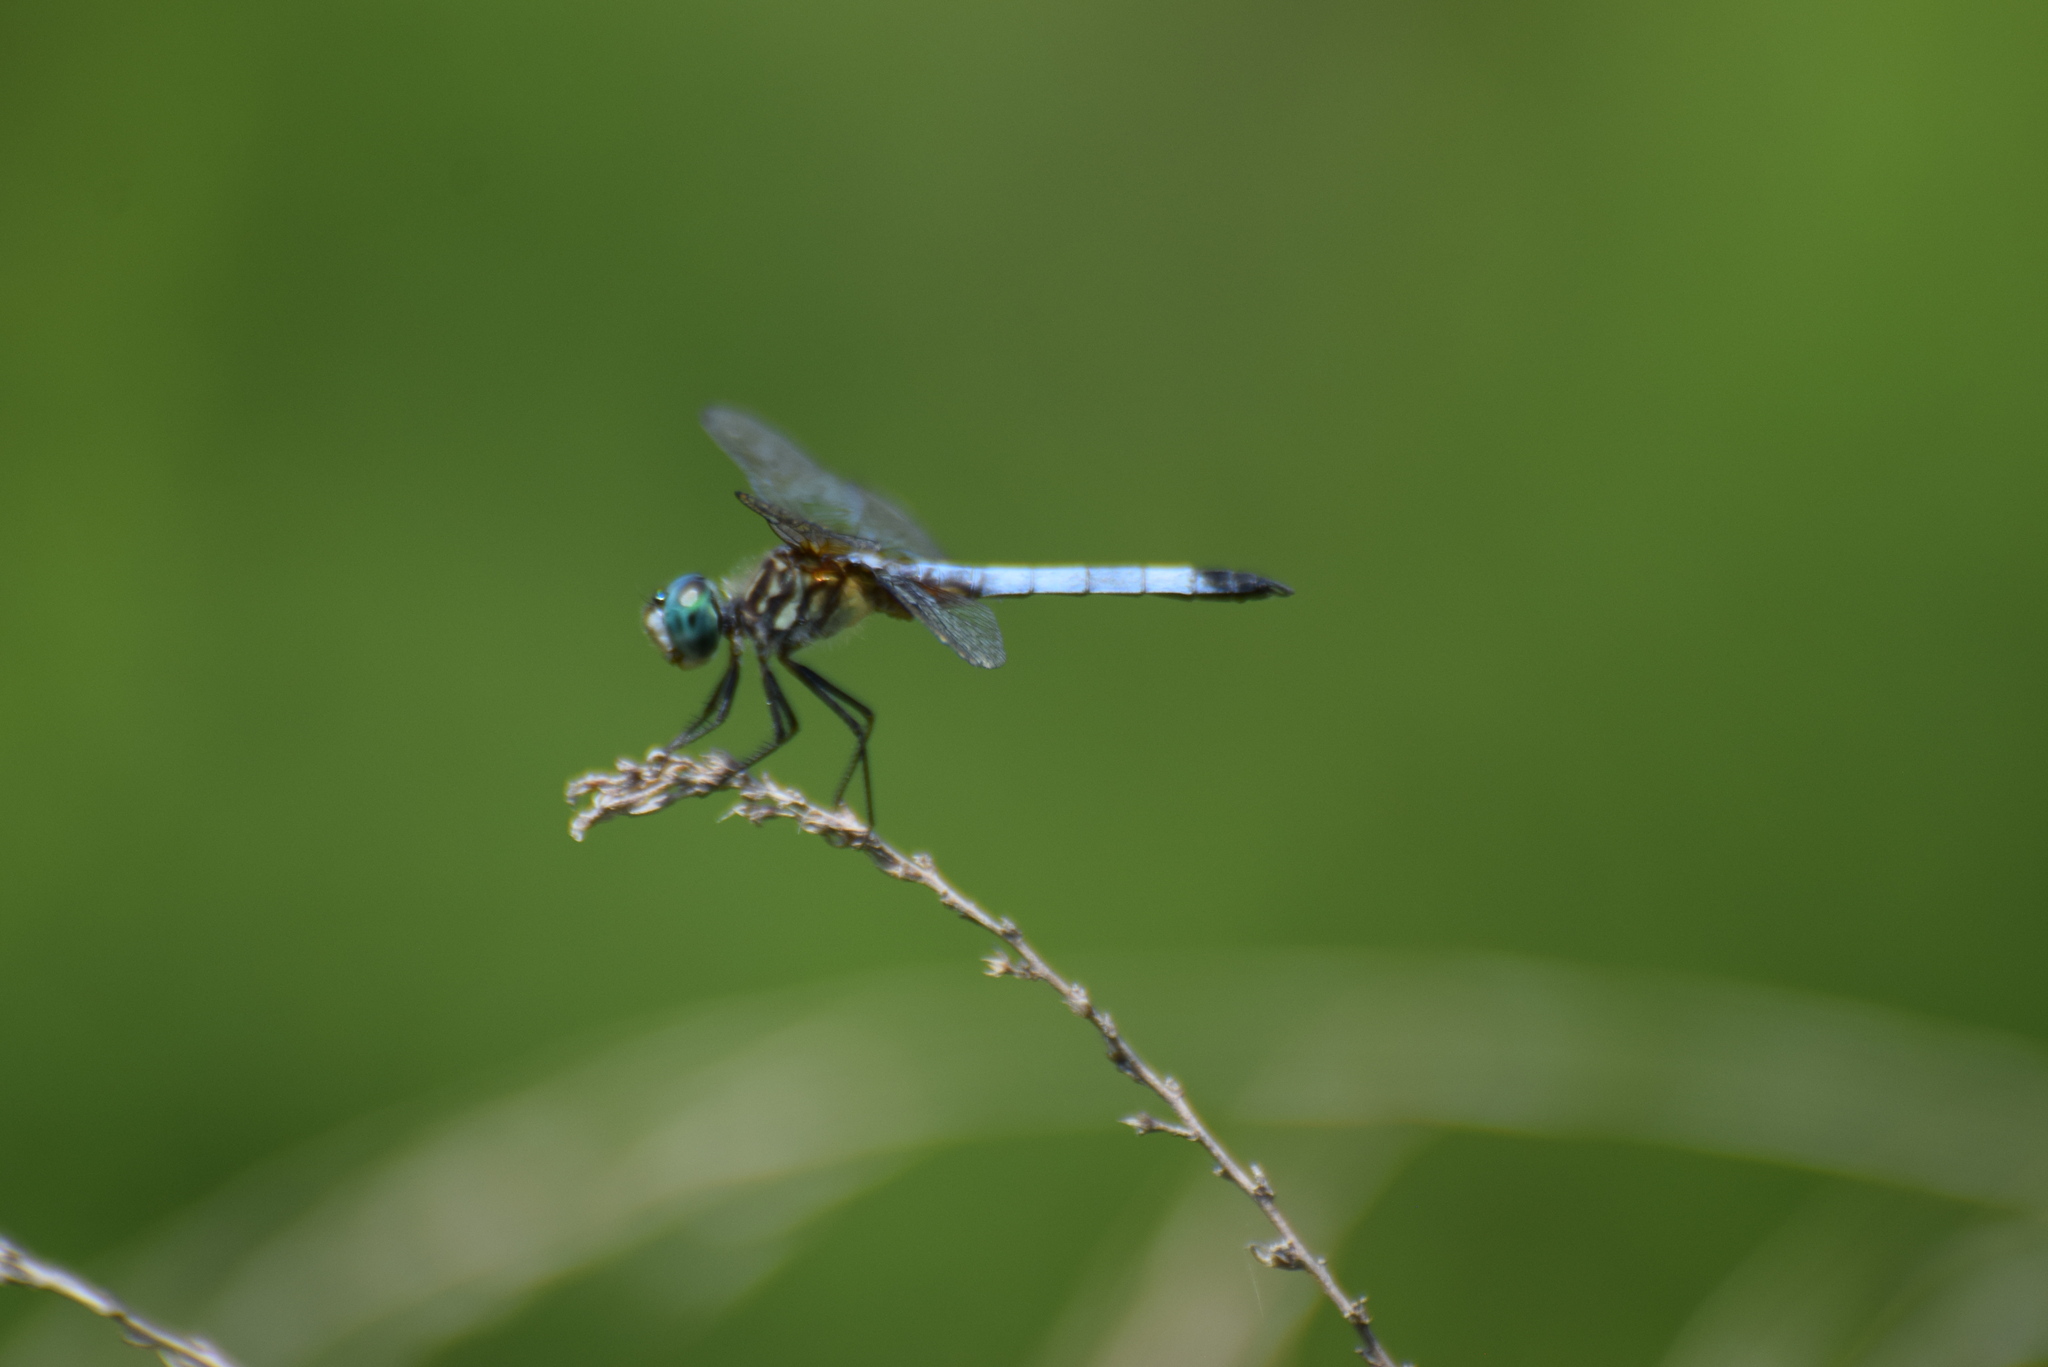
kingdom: Animalia
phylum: Arthropoda
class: Insecta
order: Odonata
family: Libellulidae
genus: Pachydiplax
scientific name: Pachydiplax longipennis
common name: Blue dasher
